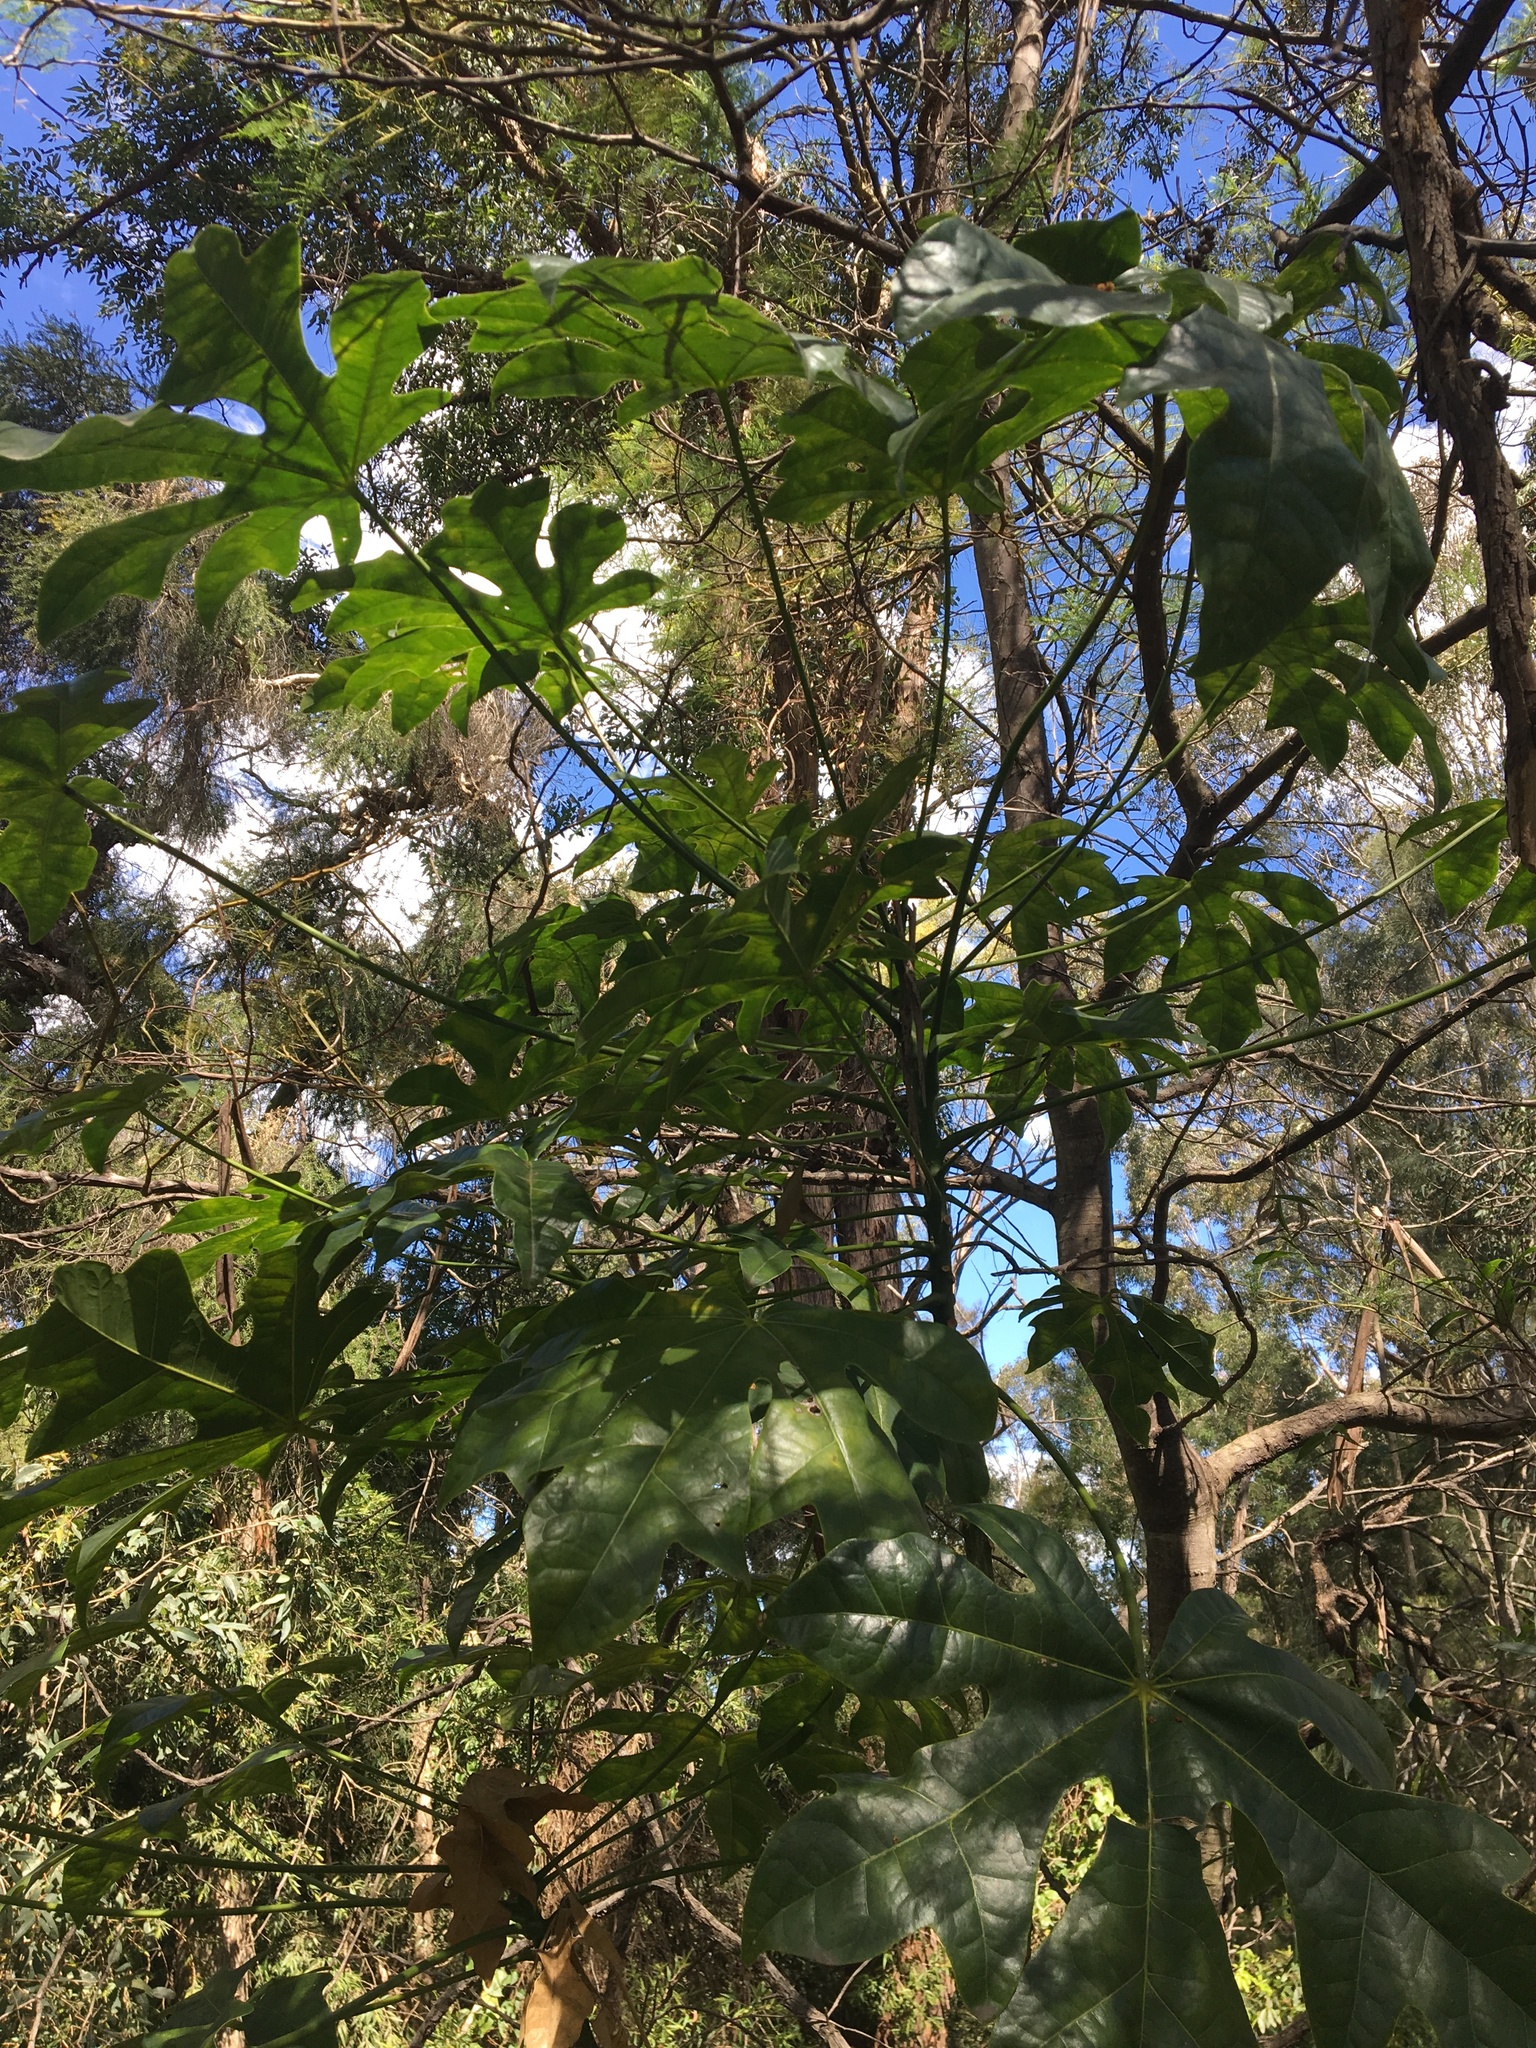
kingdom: Plantae
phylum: Tracheophyta
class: Magnoliopsida
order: Malvales
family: Malvaceae
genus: Brachychiton
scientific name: Brachychiton acerifolius
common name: Illawarra flame tree
